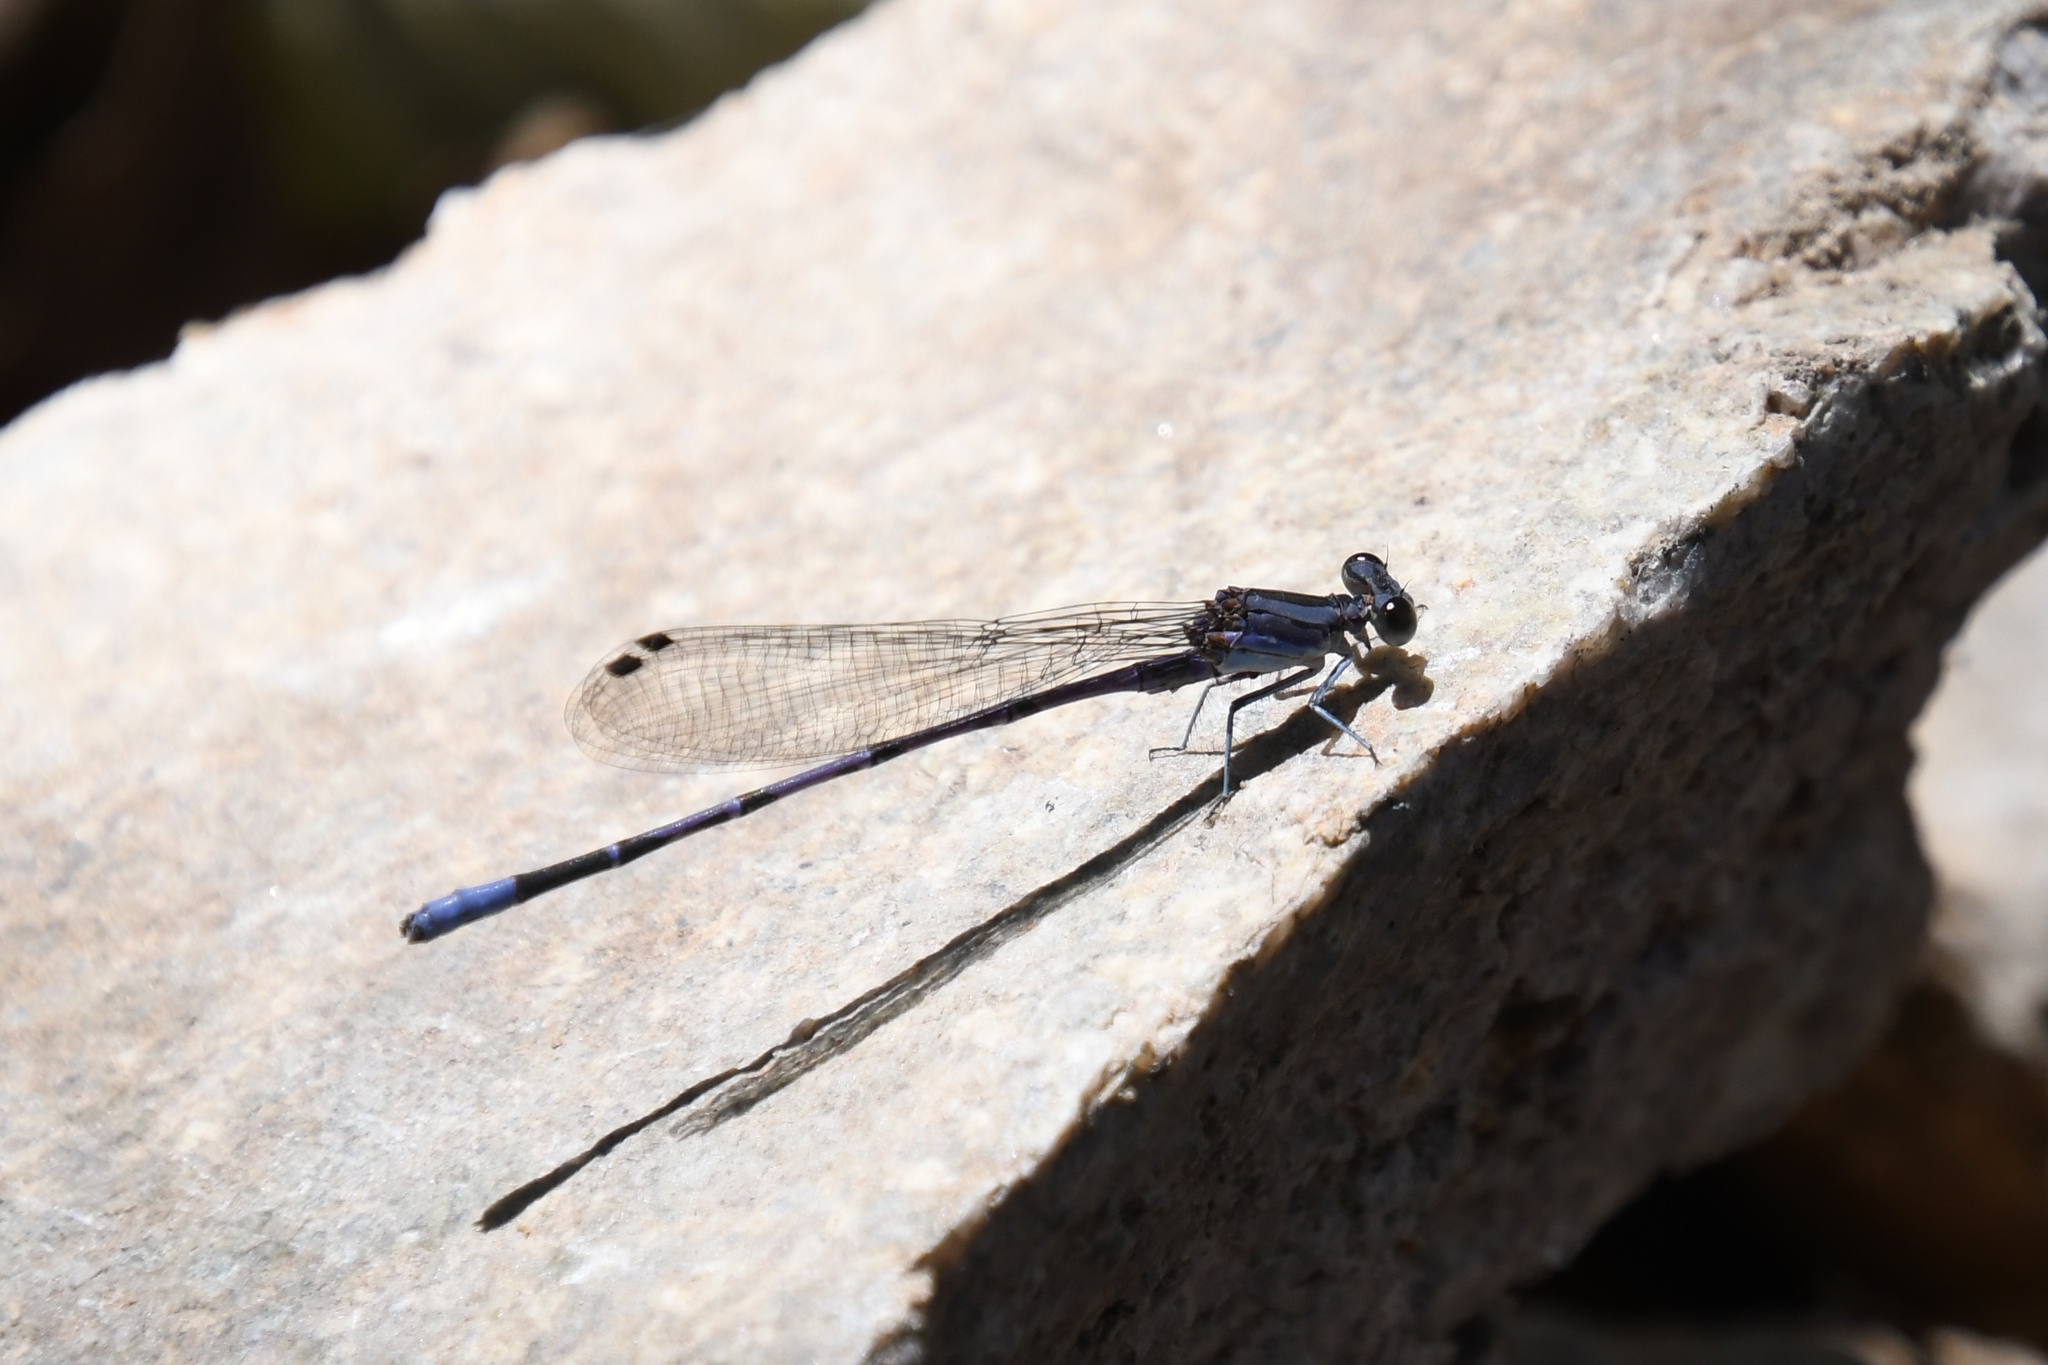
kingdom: Animalia
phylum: Arthropoda
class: Insecta
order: Odonata
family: Coenagrionidae
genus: Argia
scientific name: Argia funebris
